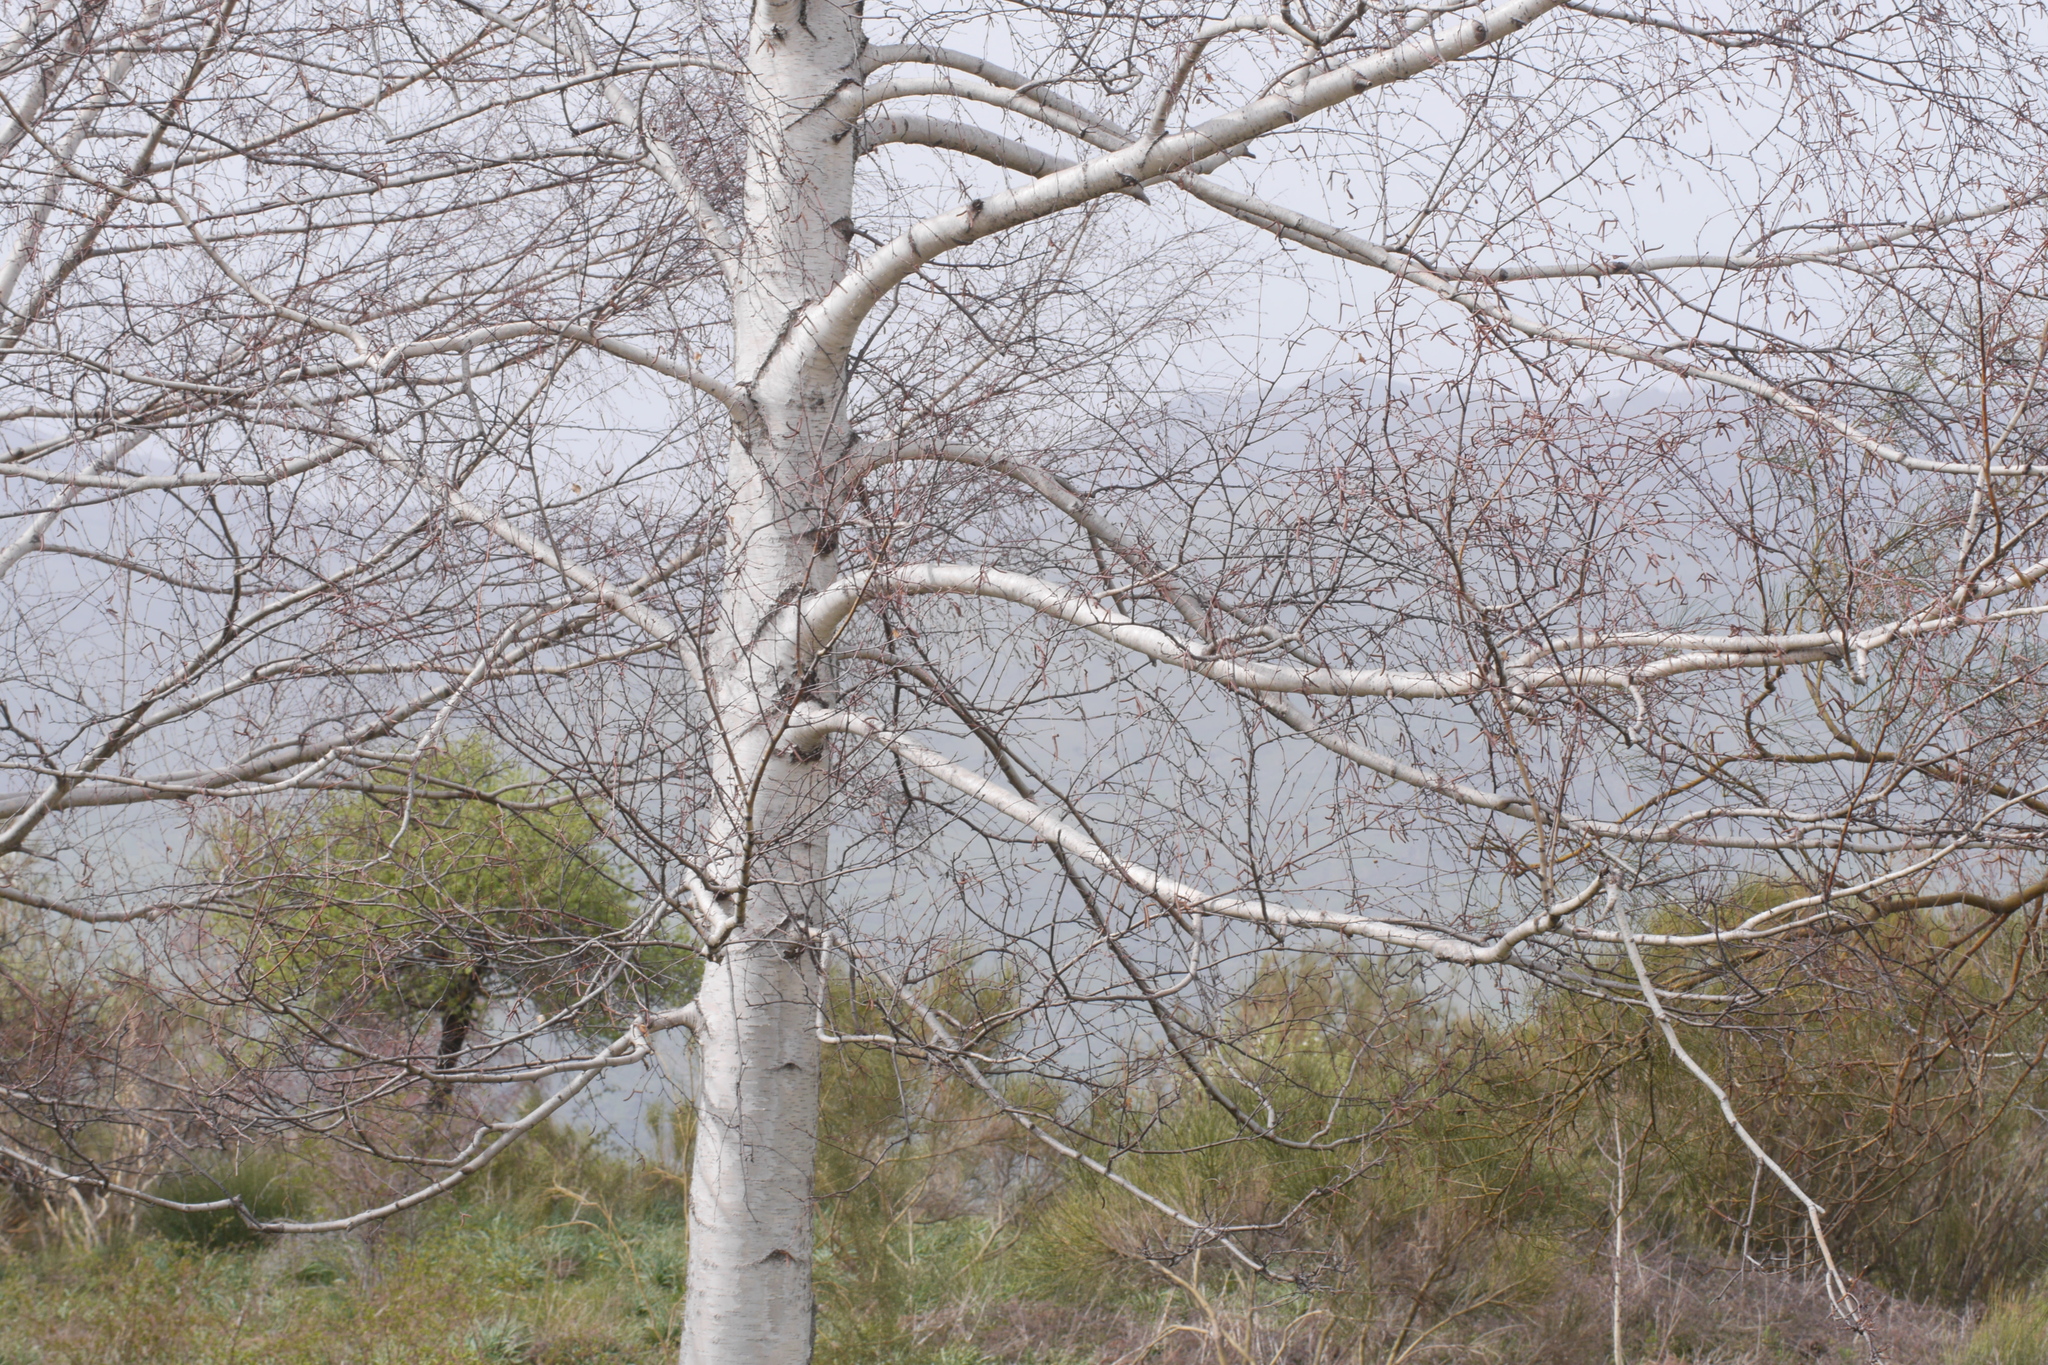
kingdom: Plantae
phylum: Tracheophyta
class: Magnoliopsida
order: Fagales
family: Betulaceae
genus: Betula
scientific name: Betula pendula
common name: Silver birch
